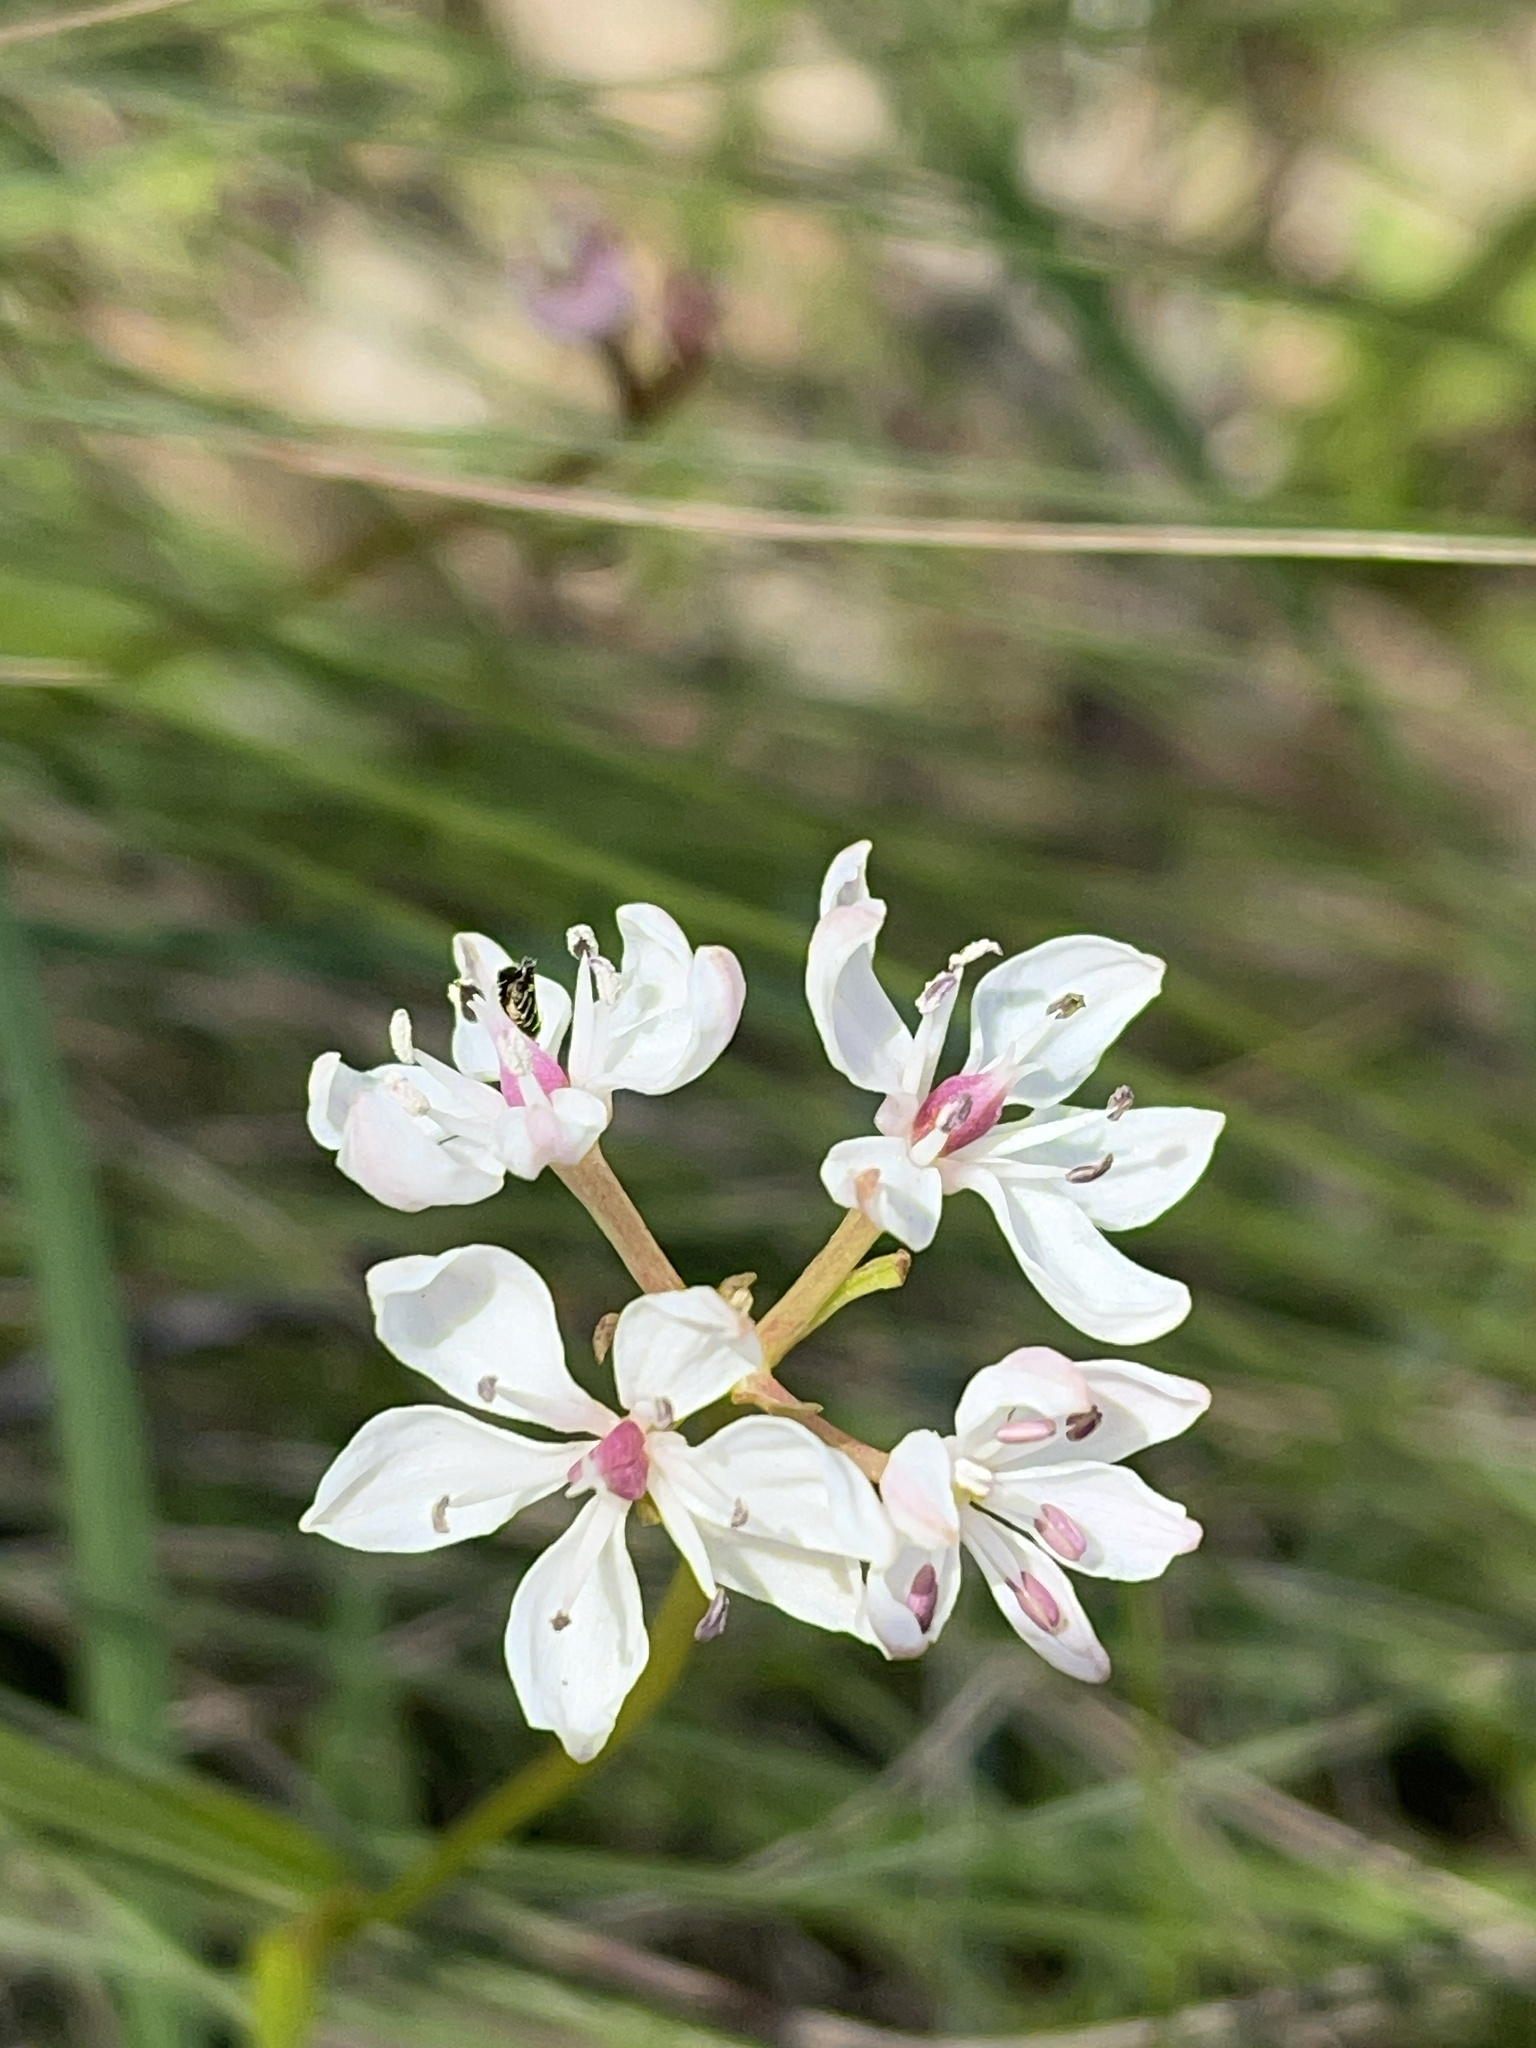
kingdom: Plantae
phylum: Tracheophyta
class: Liliopsida
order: Liliales
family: Colchicaceae
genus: Burchardia
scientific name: Burchardia umbellata
